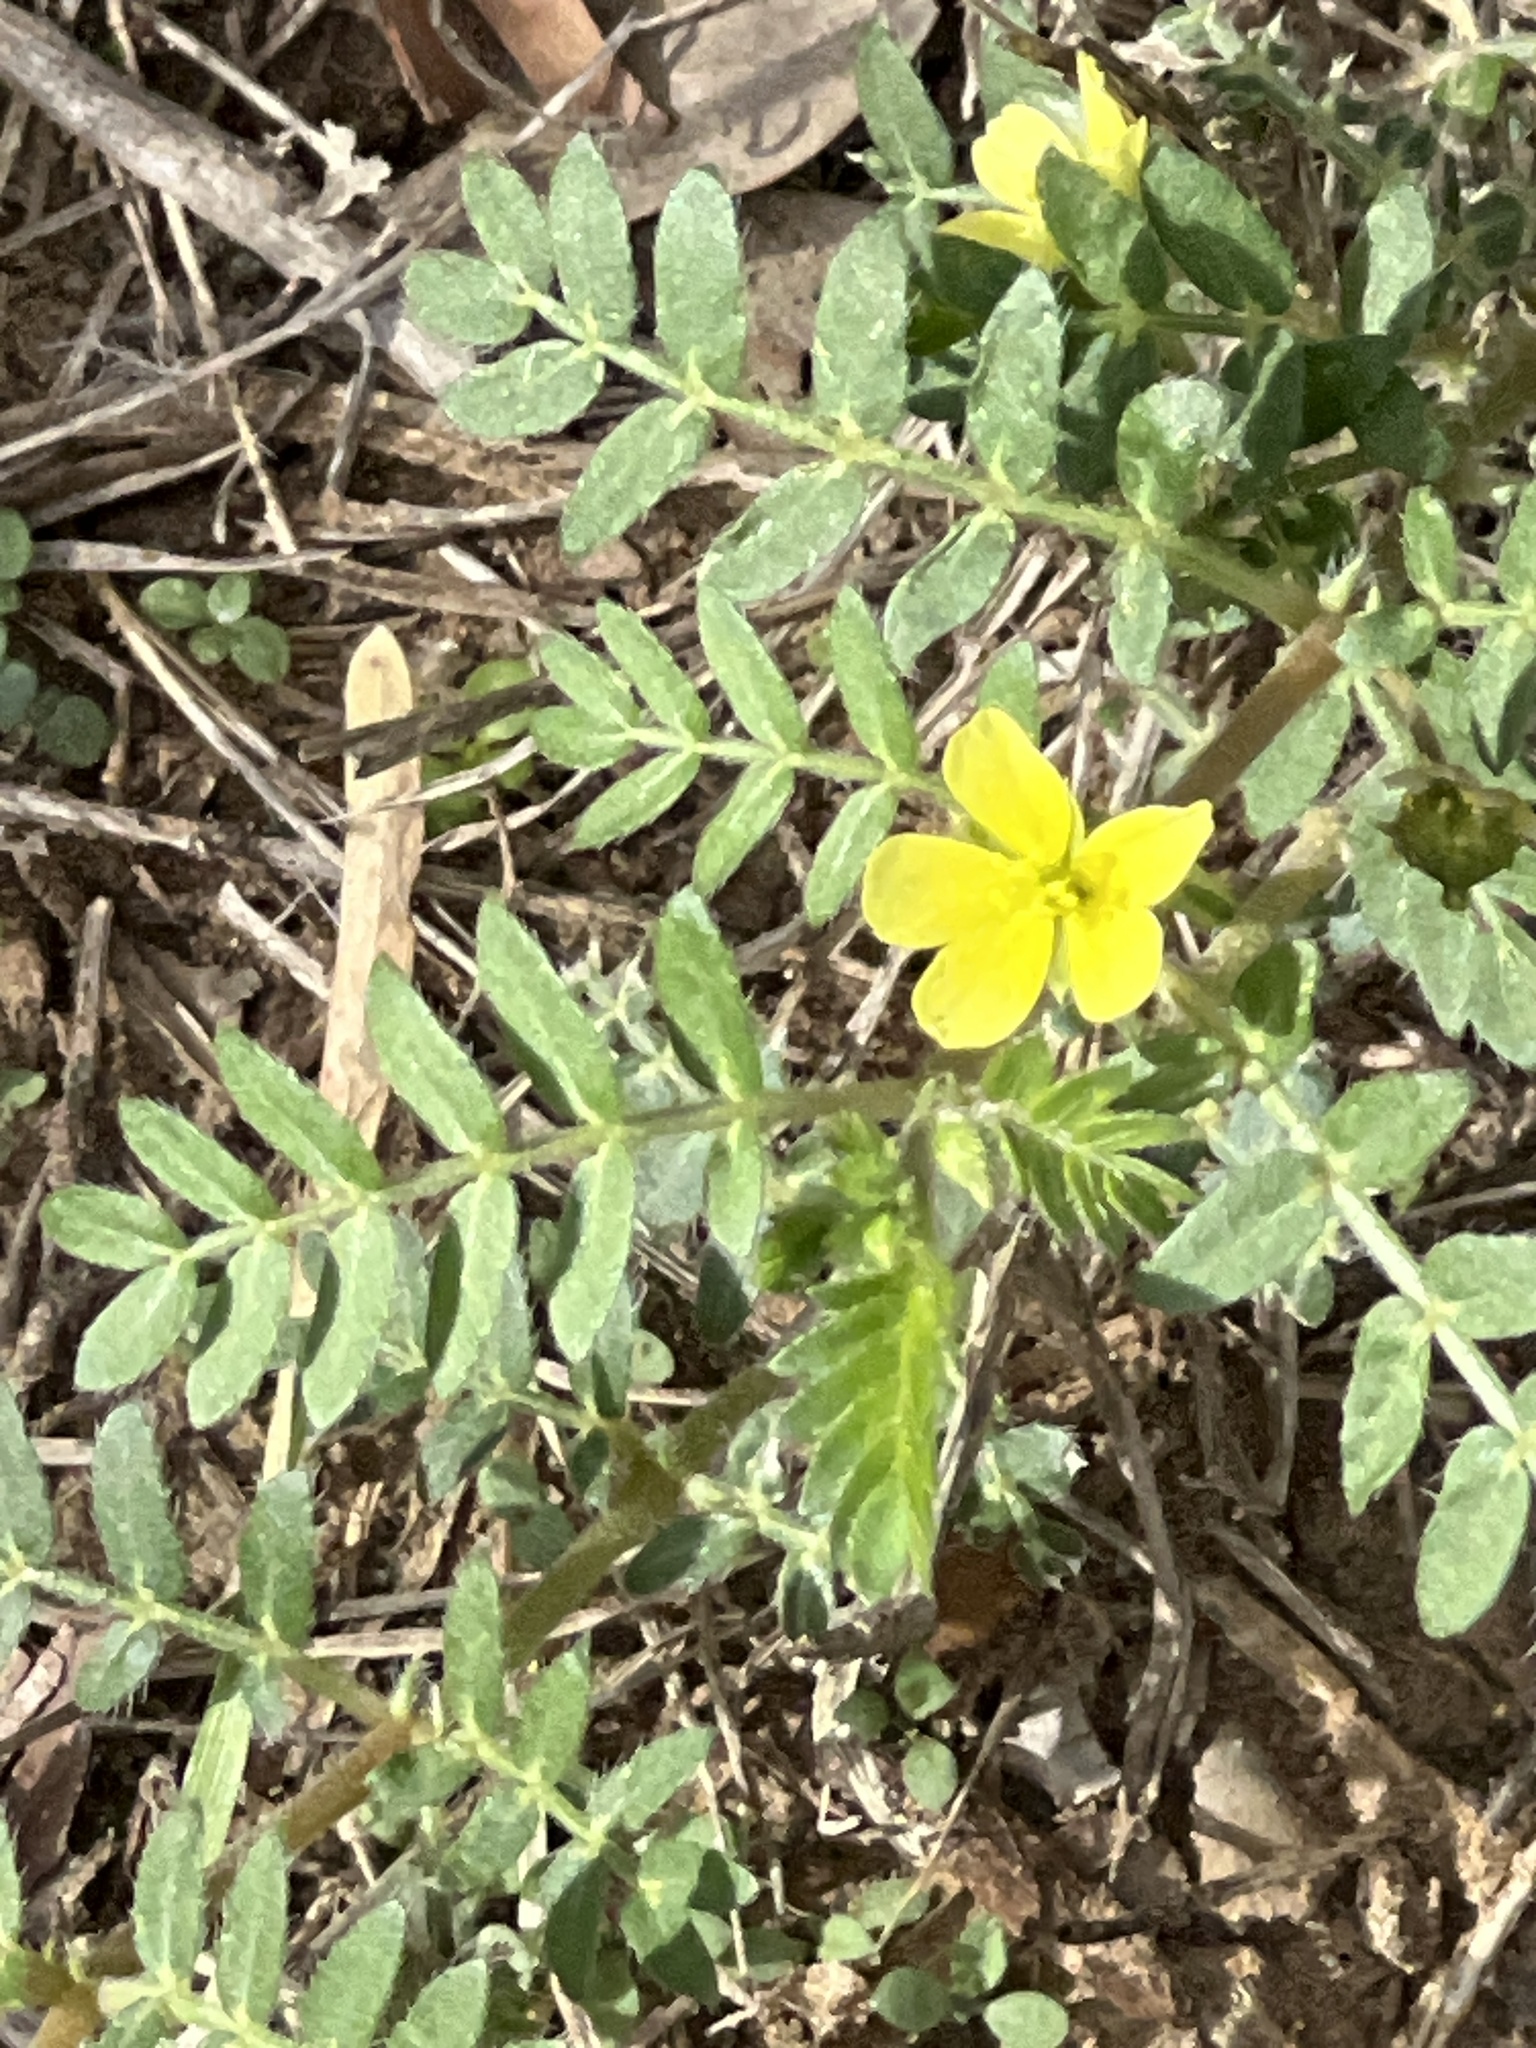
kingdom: Plantae
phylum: Tracheophyta
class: Magnoliopsida
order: Zygophyllales
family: Zygophyllaceae
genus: Tribulus
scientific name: Tribulus terrestris
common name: Puncturevine
